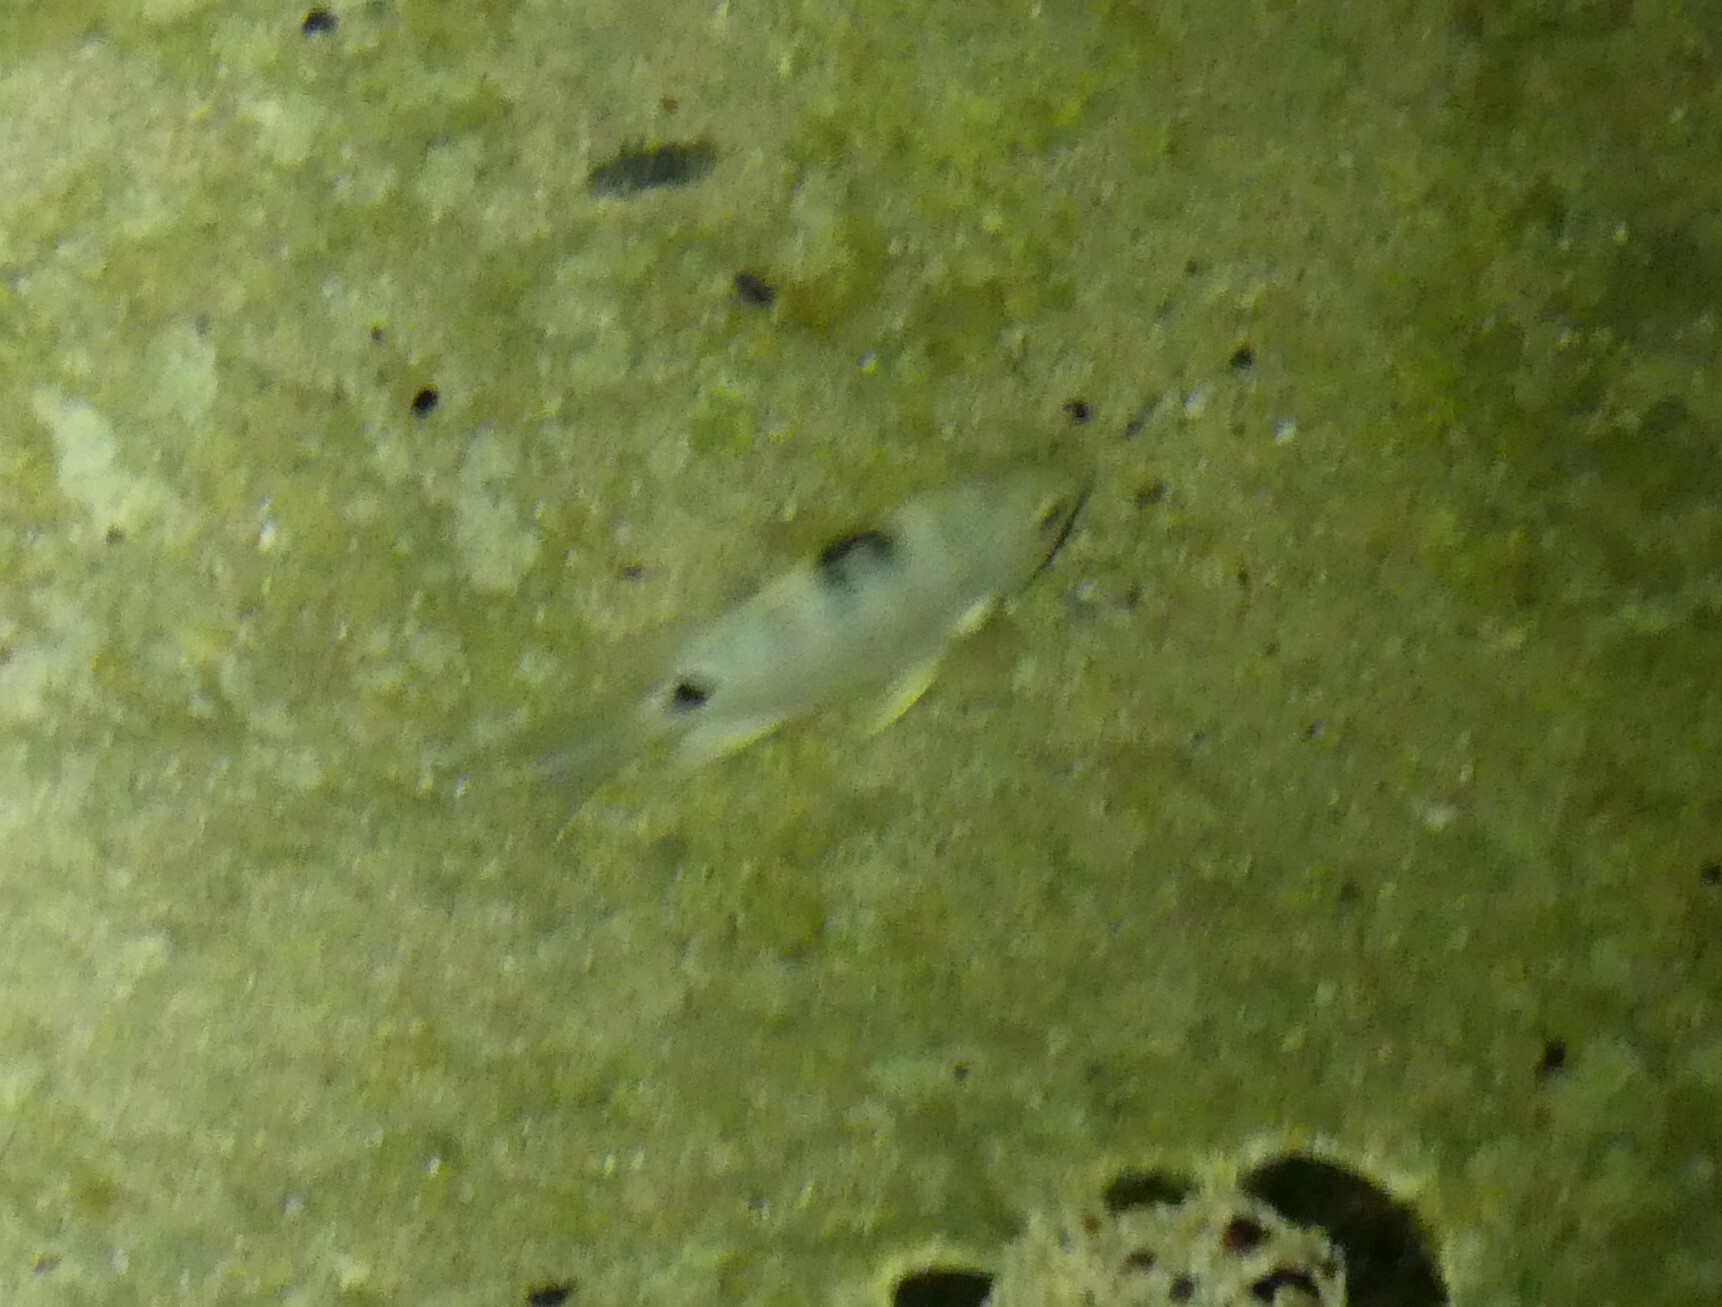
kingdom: Animalia
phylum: Chordata
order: Perciformes
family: Pomacentridae
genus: Abudefduf
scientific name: Abudefduf sordidus
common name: Blackspot sergeant
